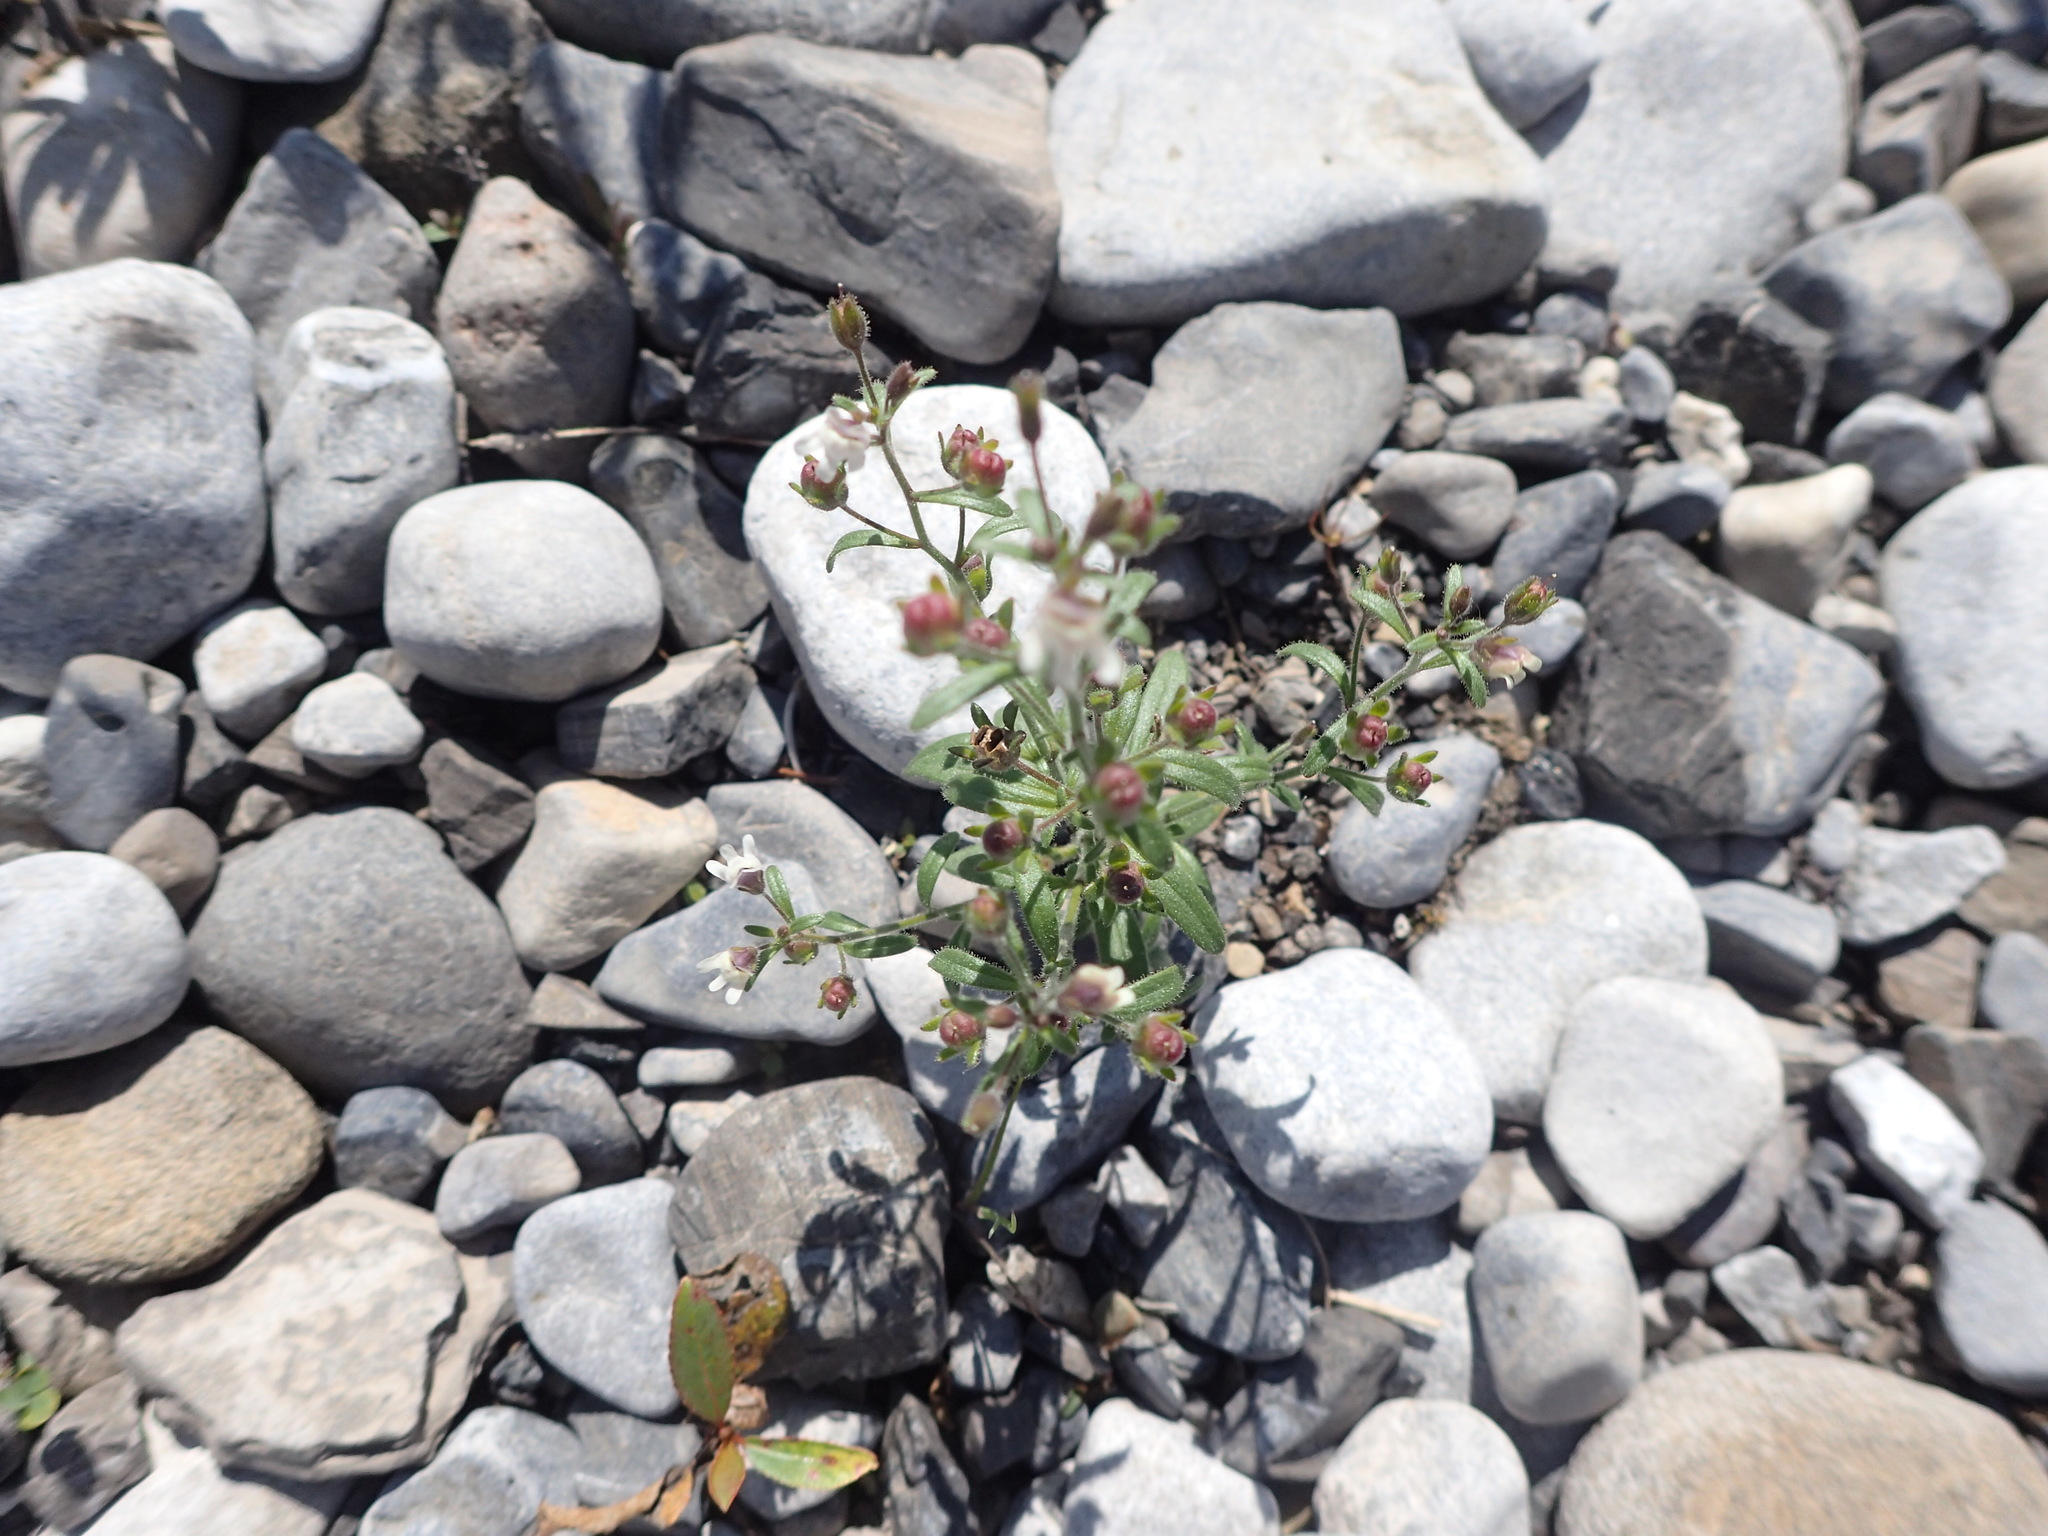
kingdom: Plantae
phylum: Tracheophyta
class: Magnoliopsida
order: Lamiales
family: Plantaginaceae
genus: Chaenorhinum
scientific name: Chaenorhinum minus
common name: Dwarf snapdragon
